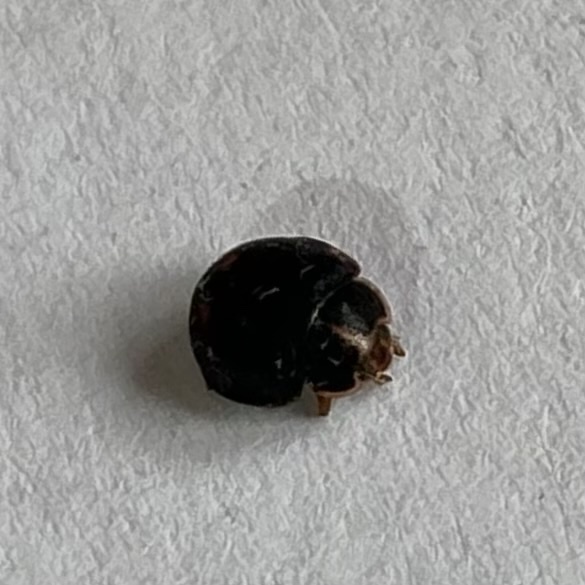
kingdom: Animalia
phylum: Arthropoda
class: Insecta
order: Coleoptera
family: Coccinellidae
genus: Calvia
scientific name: Calvia quatuordecimguttata
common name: Cream-spot ladybird
